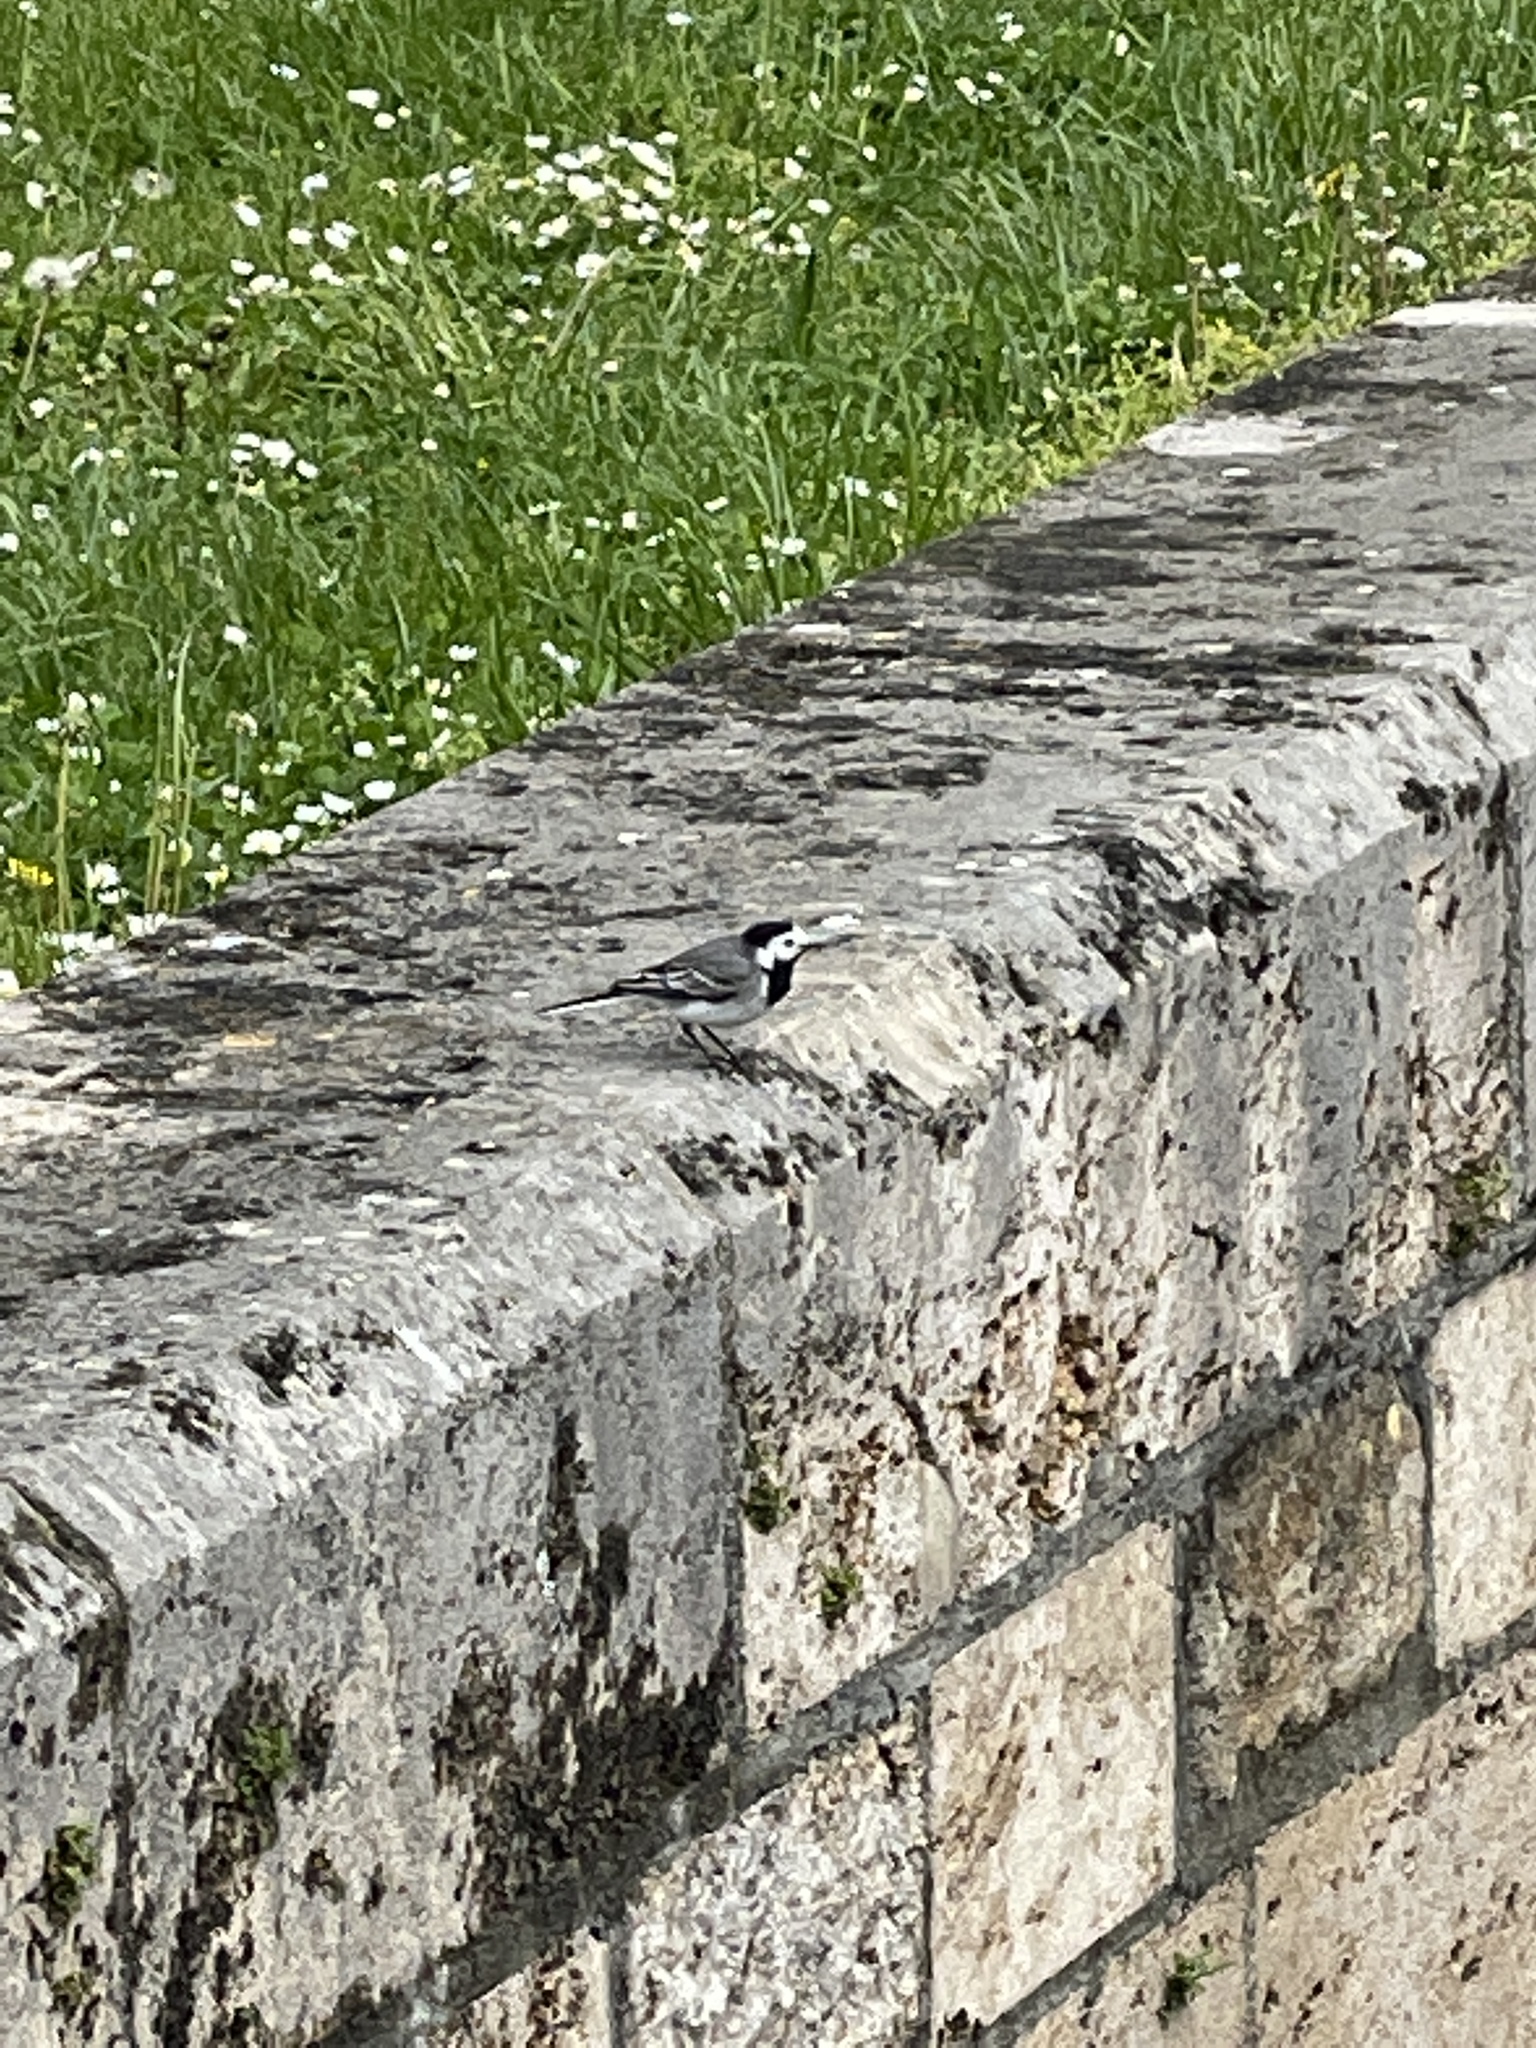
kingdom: Animalia
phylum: Chordata
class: Aves
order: Passeriformes
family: Motacillidae
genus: Motacilla
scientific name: Motacilla alba
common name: White wagtail
